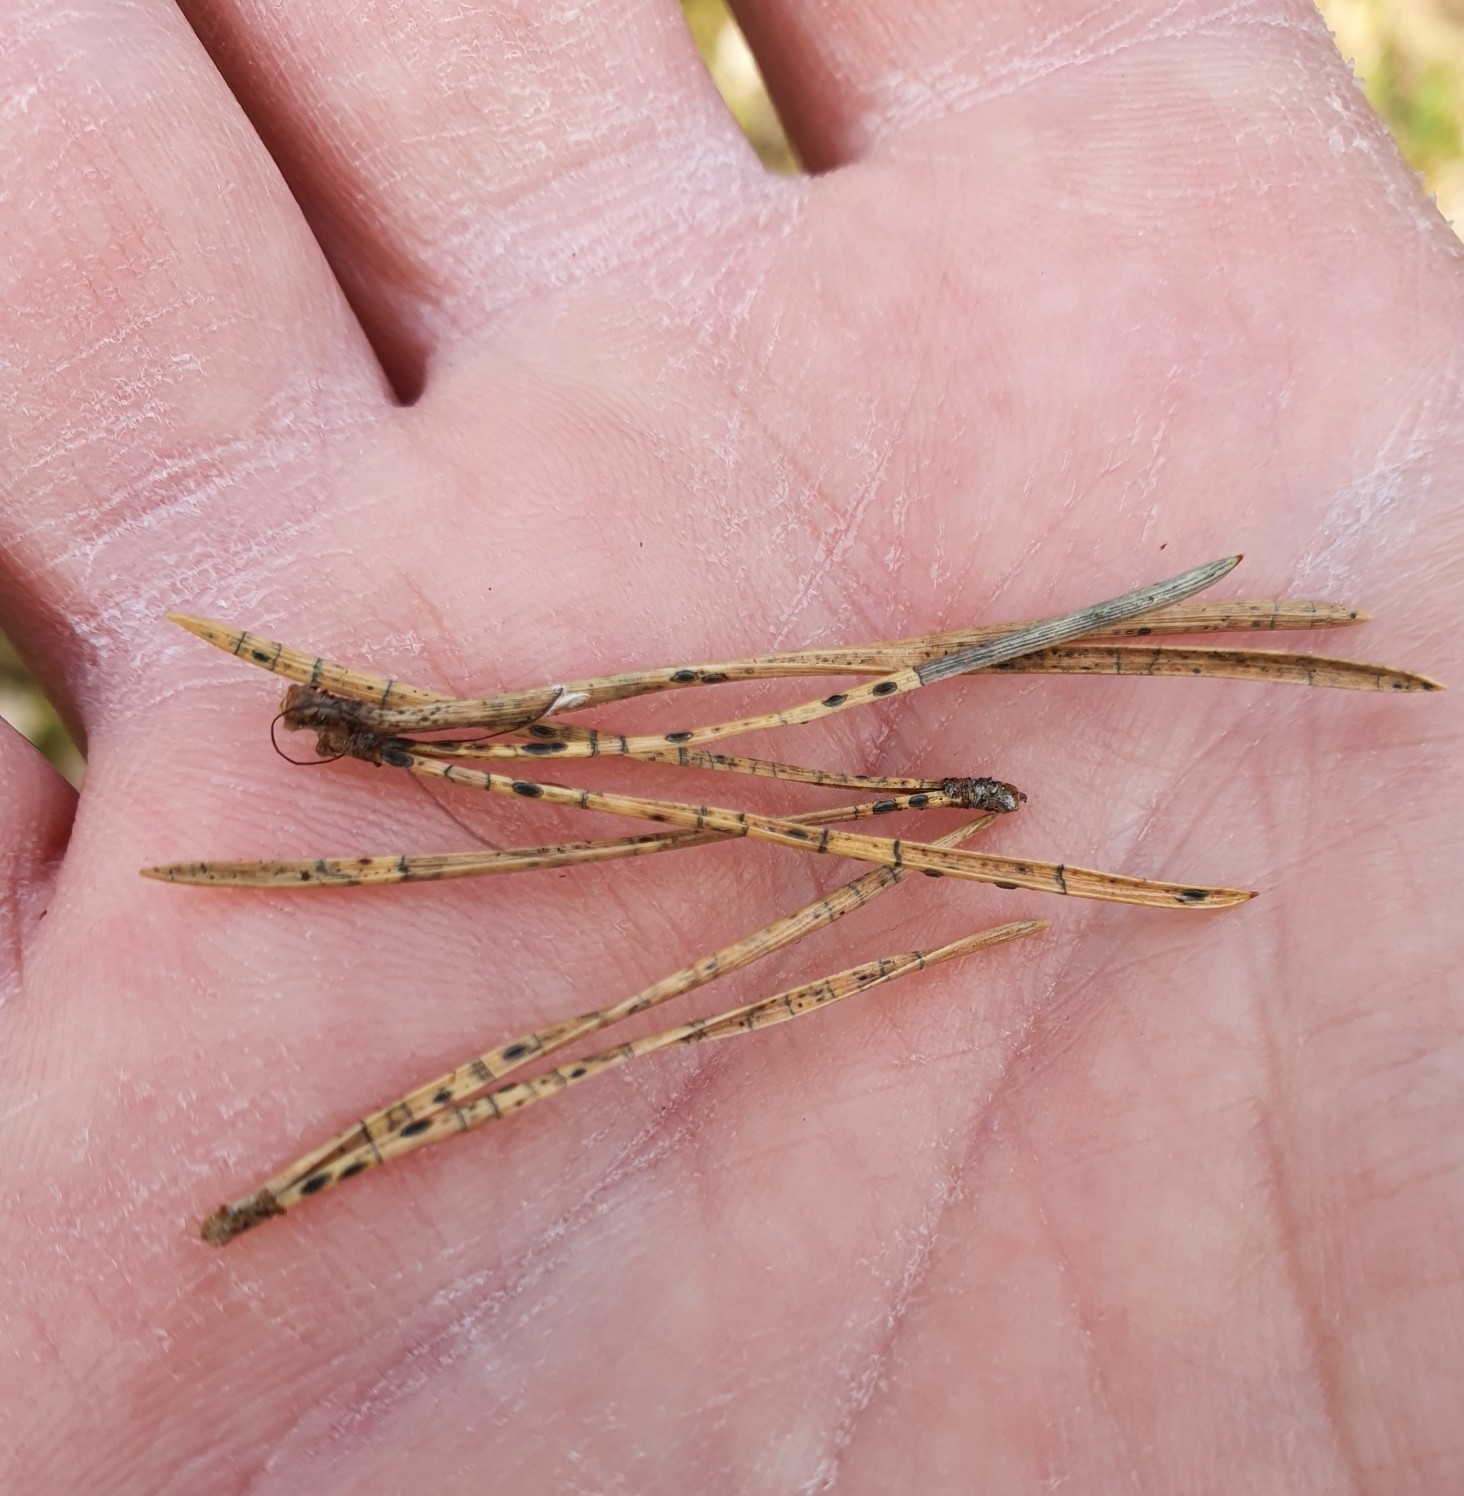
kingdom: Fungi
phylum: Ascomycota
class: Leotiomycetes
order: Rhytismatales
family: Rhytismataceae
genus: Lophodermium
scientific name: Lophodermium pinastri
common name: Pine needle split
